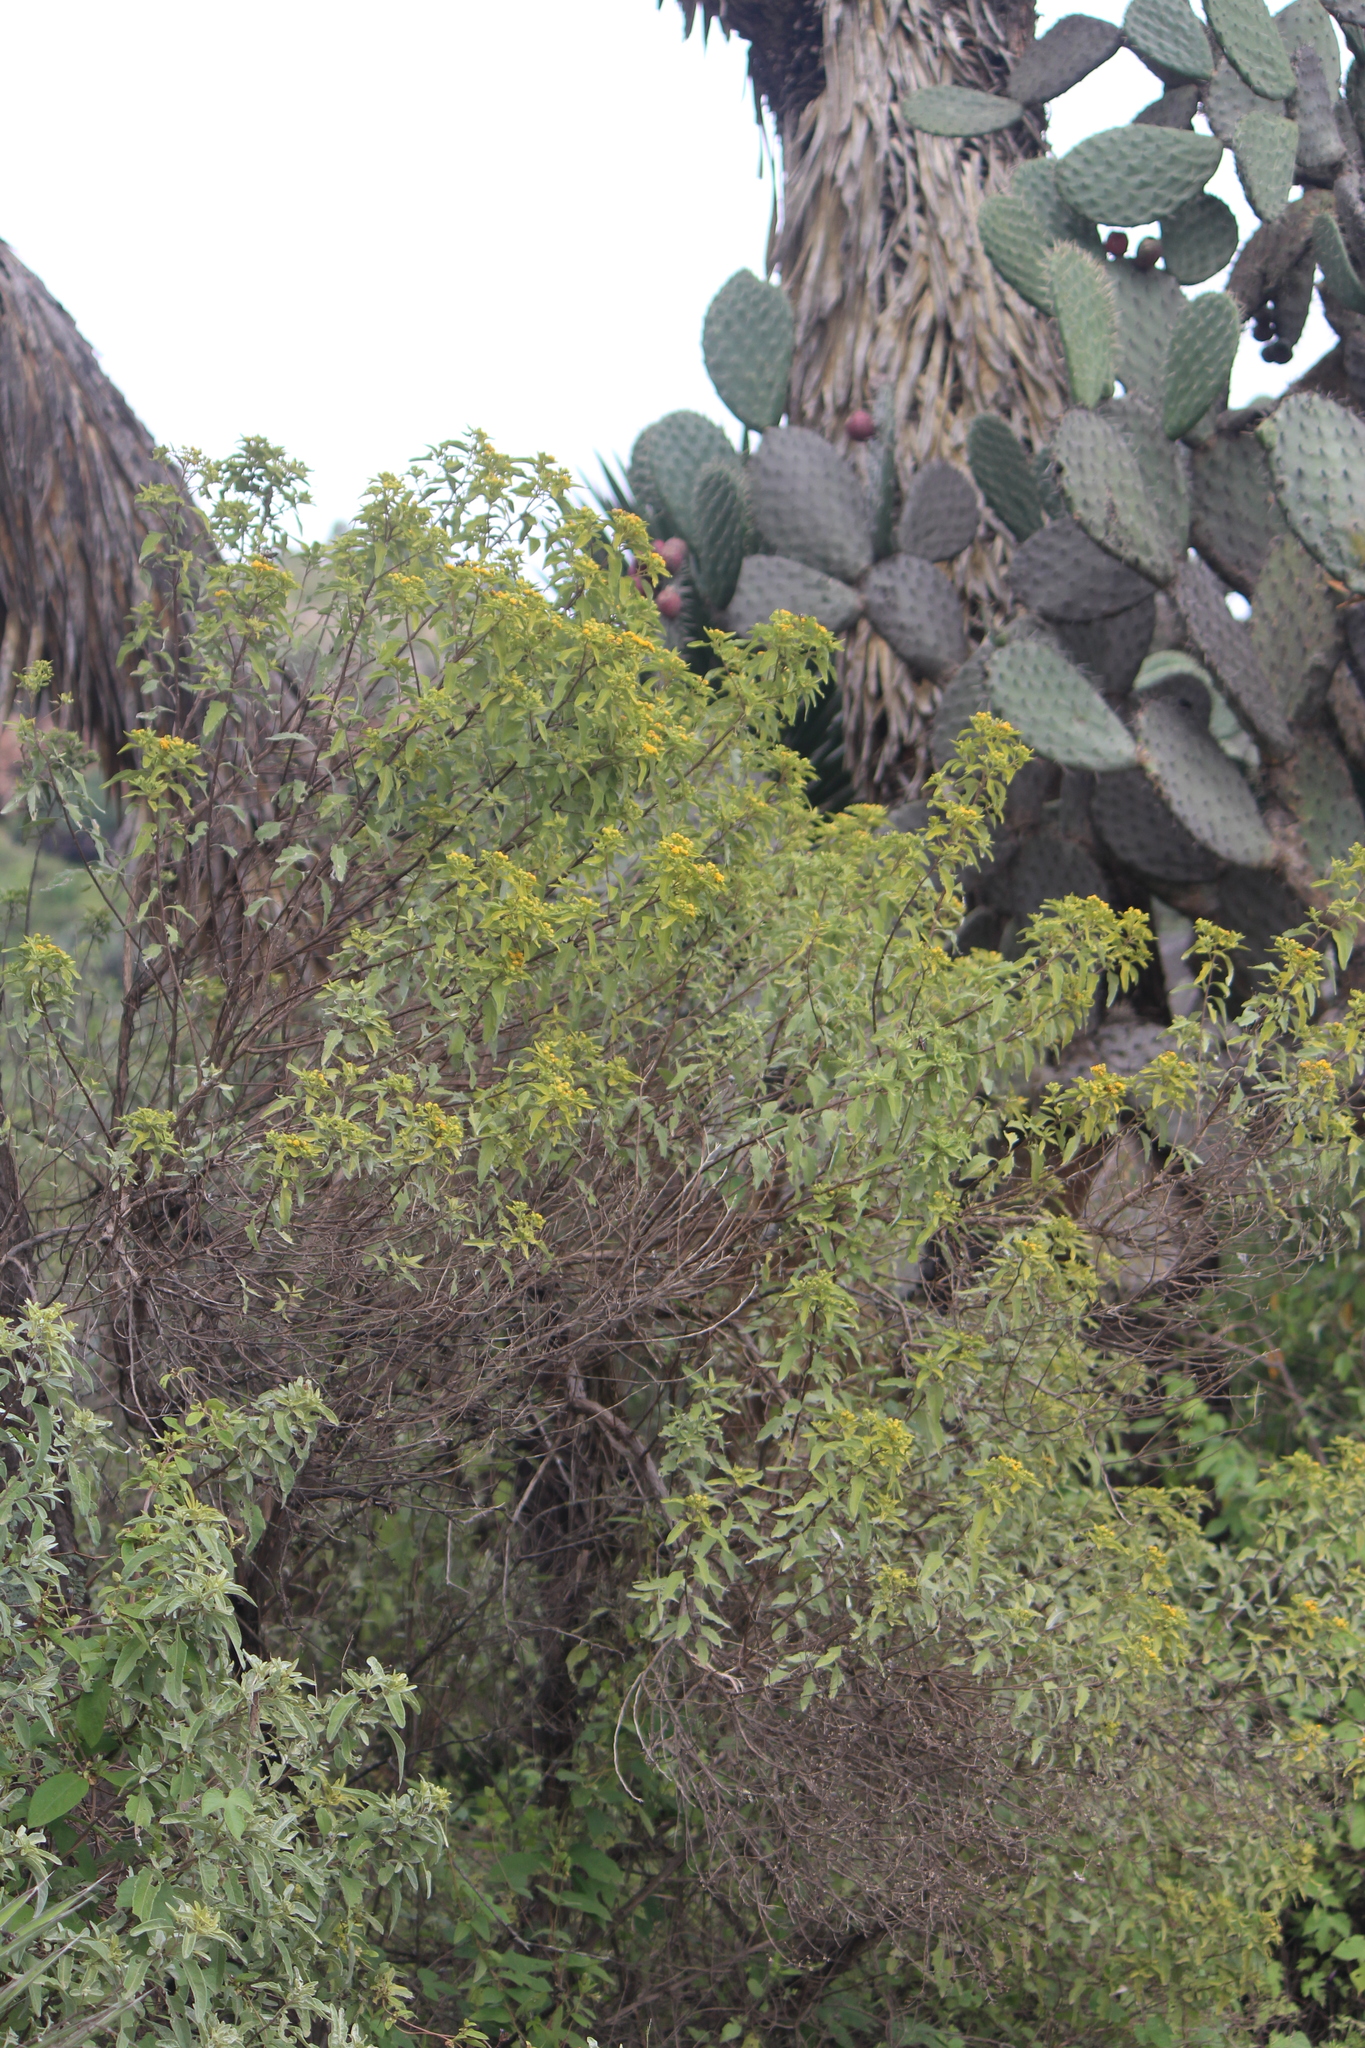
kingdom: Plantae
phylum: Tracheophyta
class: Magnoliopsida
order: Asterales
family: Asteraceae
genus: Zaluzania
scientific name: Zaluzania augusta
